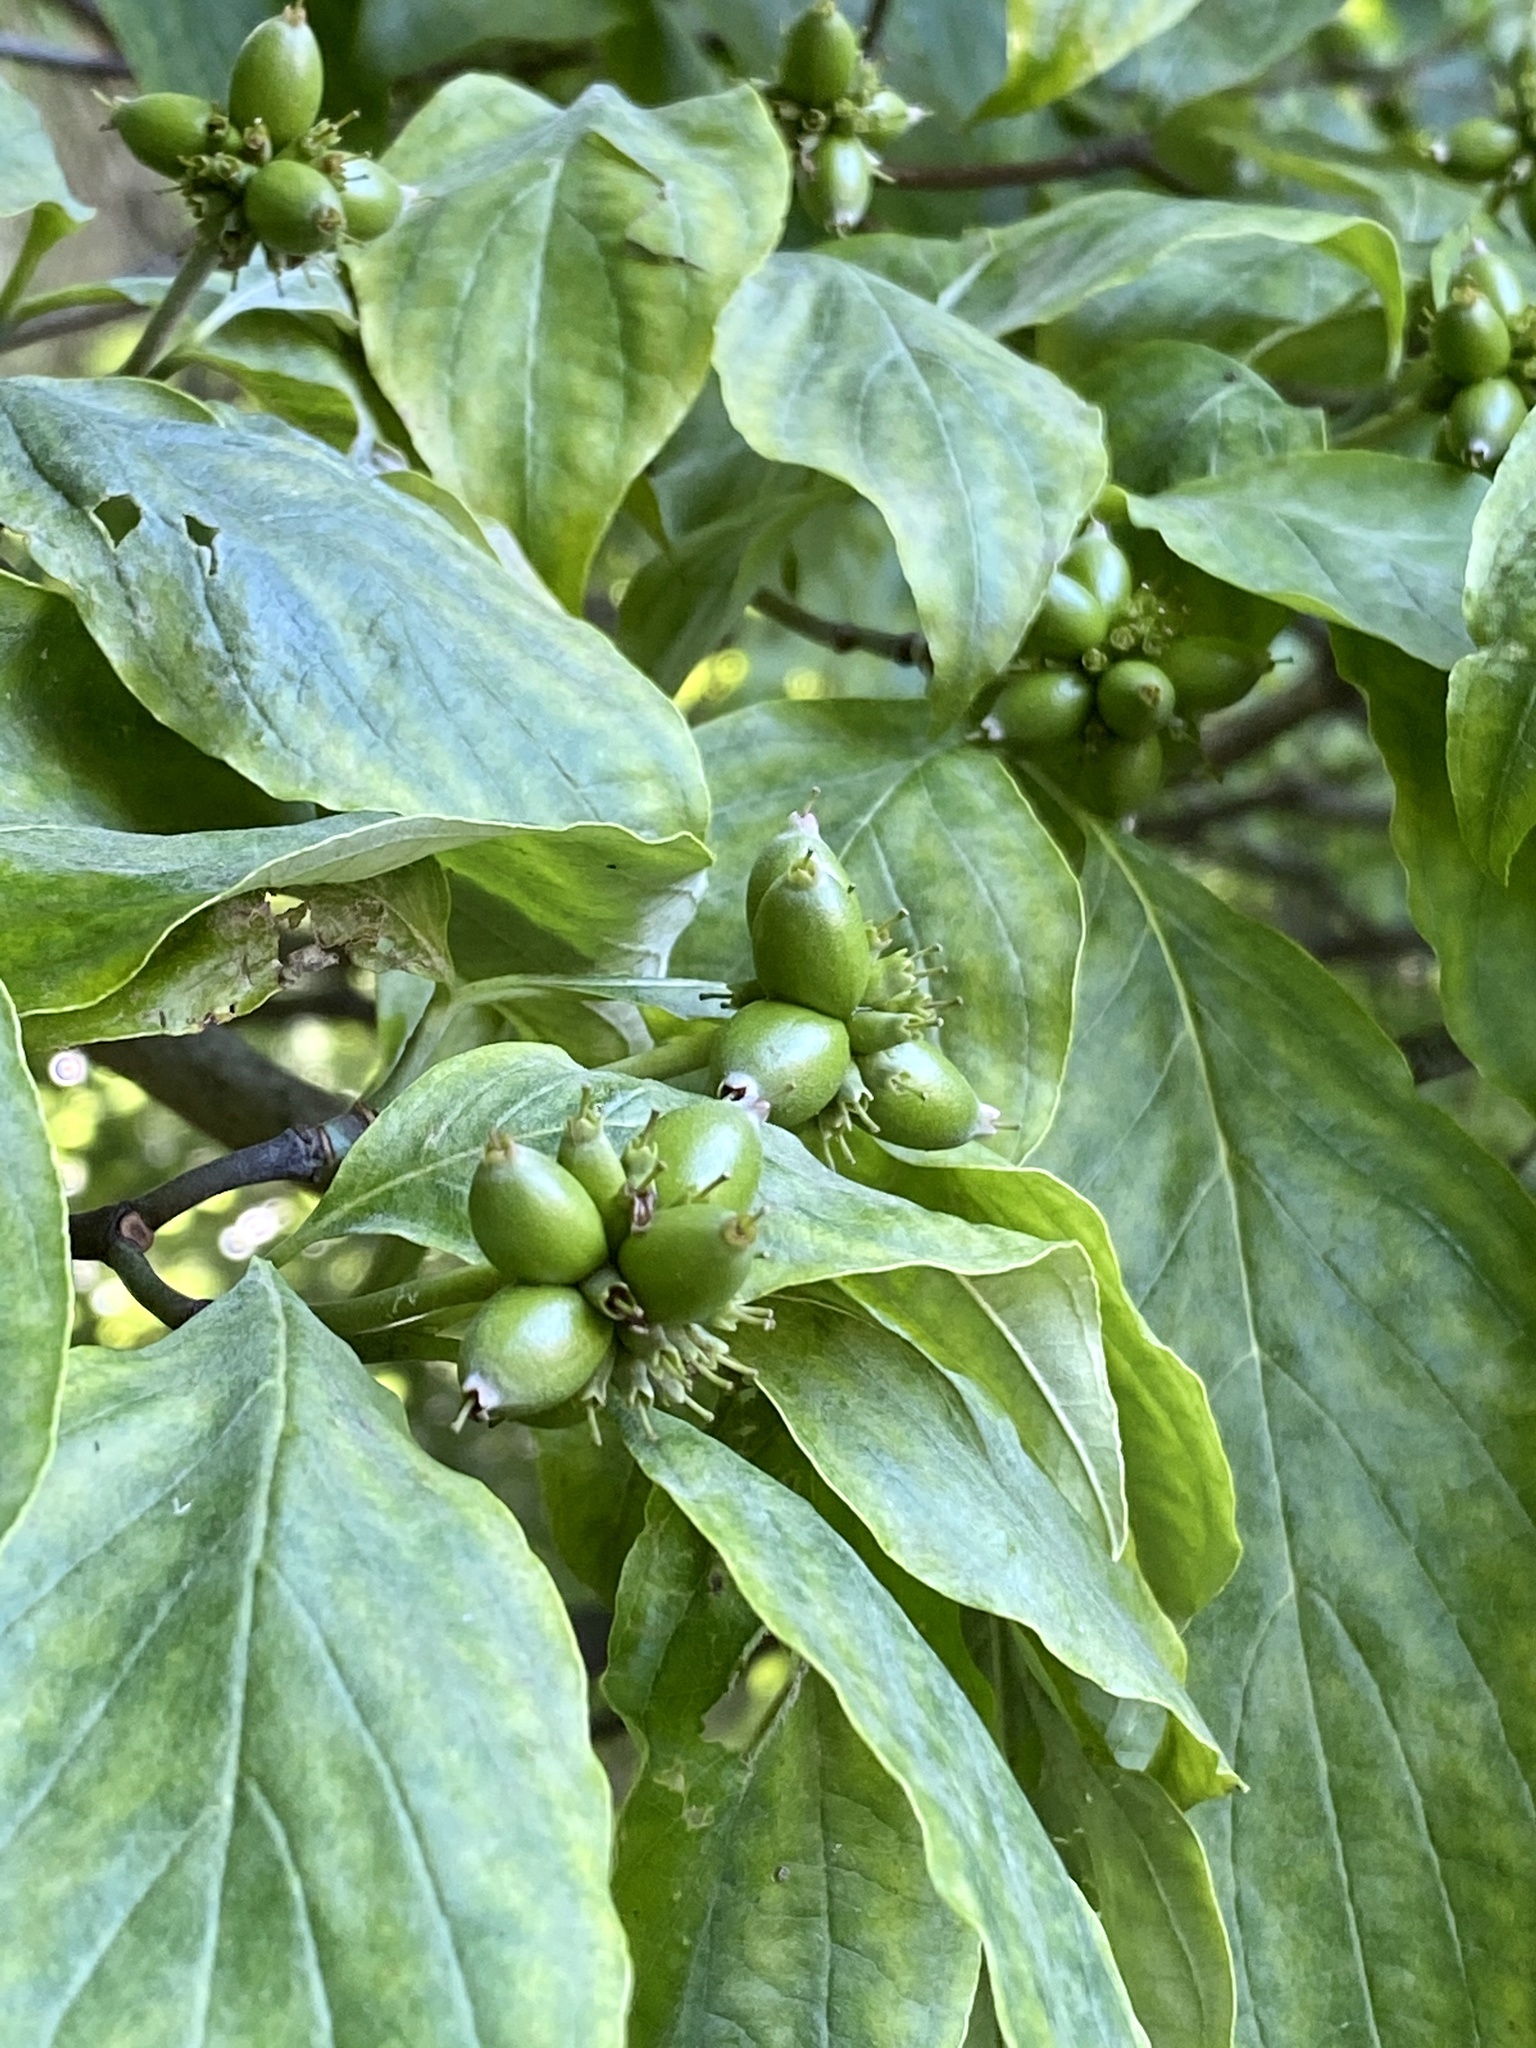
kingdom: Plantae
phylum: Tracheophyta
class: Magnoliopsida
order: Cornales
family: Cornaceae
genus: Cornus
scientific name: Cornus florida
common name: Flowering dogwood
